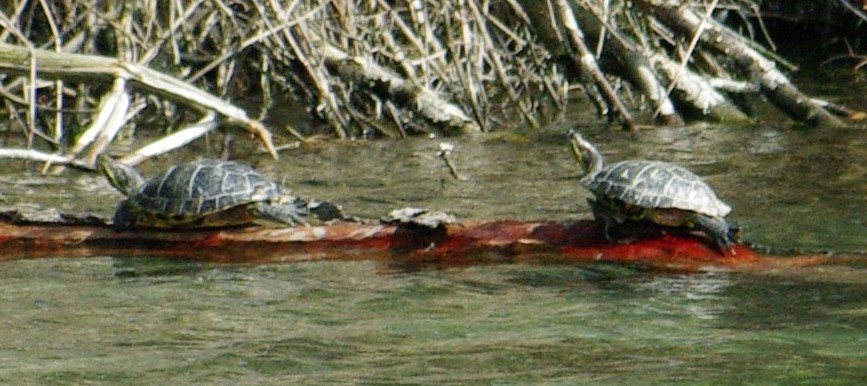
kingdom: Animalia
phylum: Chordata
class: Testudines
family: Emydidae
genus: Trachemys
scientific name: Trachemys scripta
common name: Slider
